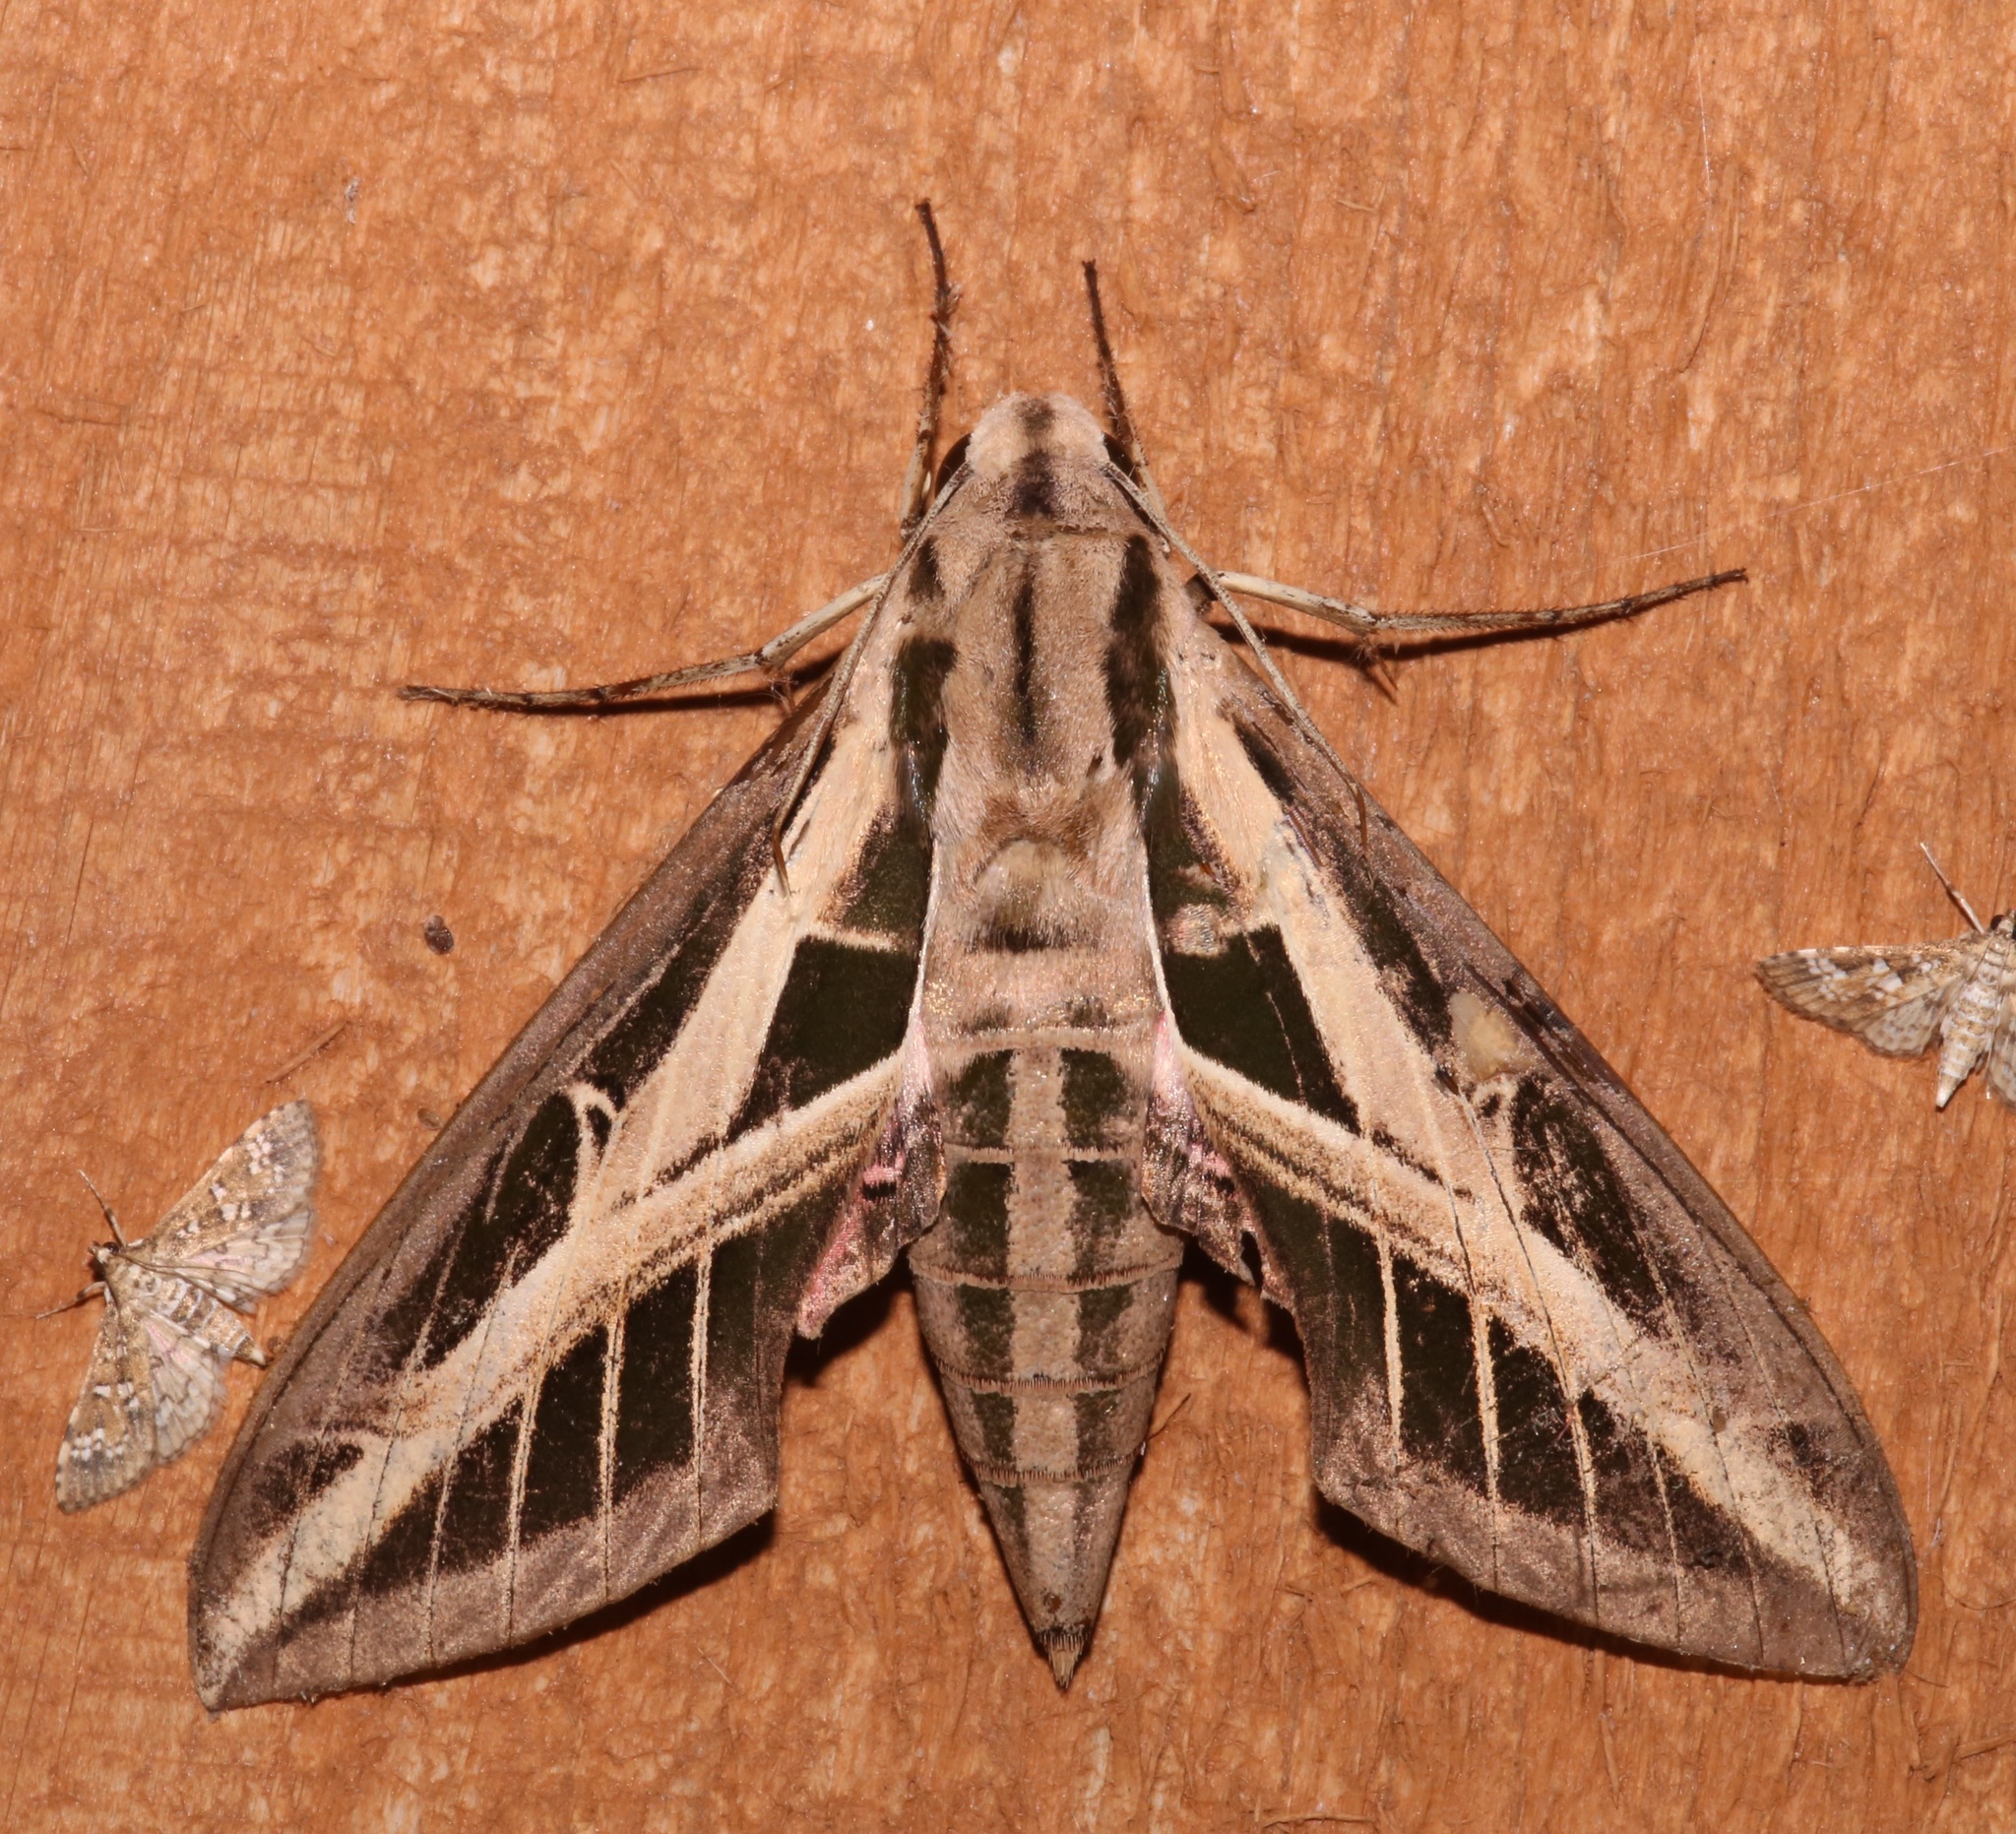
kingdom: Animalia
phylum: Arthropoda
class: Insecta
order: Lepidoptera
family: Sphingidae
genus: Eumorpha
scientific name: Eumorpha fasciatus
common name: Banded sphinx
